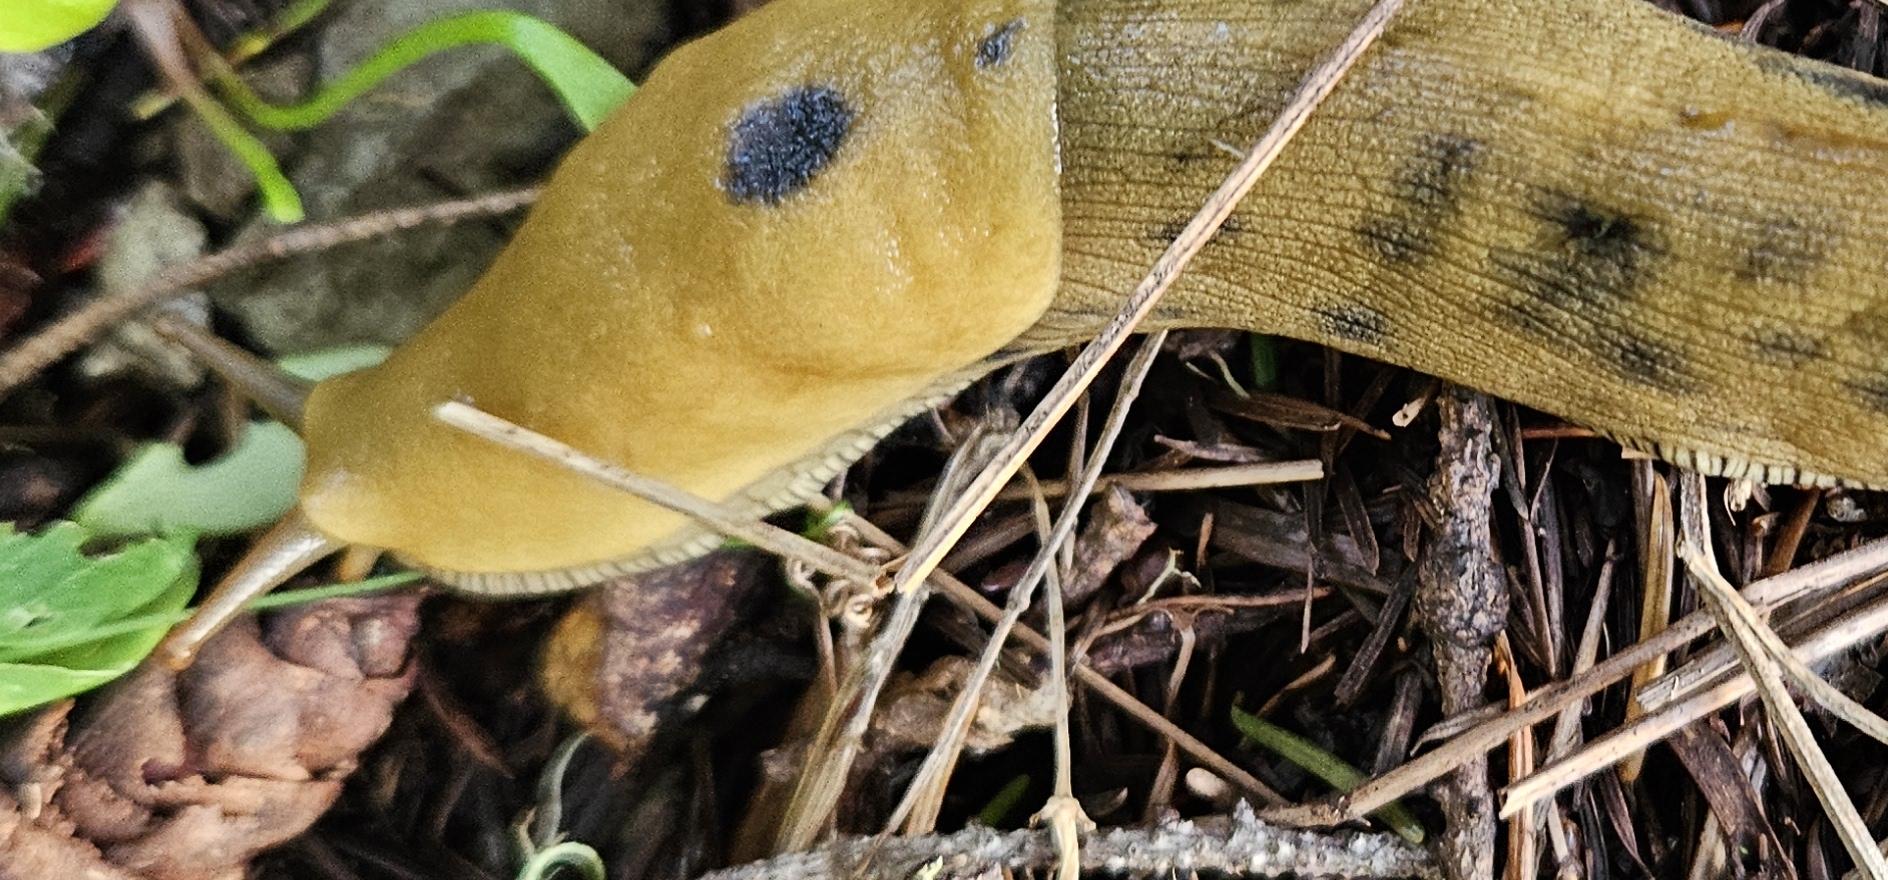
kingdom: Animalia
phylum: Mollusca
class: Gastropoda
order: Stylommatophora
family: Ariolimacidae
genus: Ariolimax
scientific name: Ariolimax buttoni
